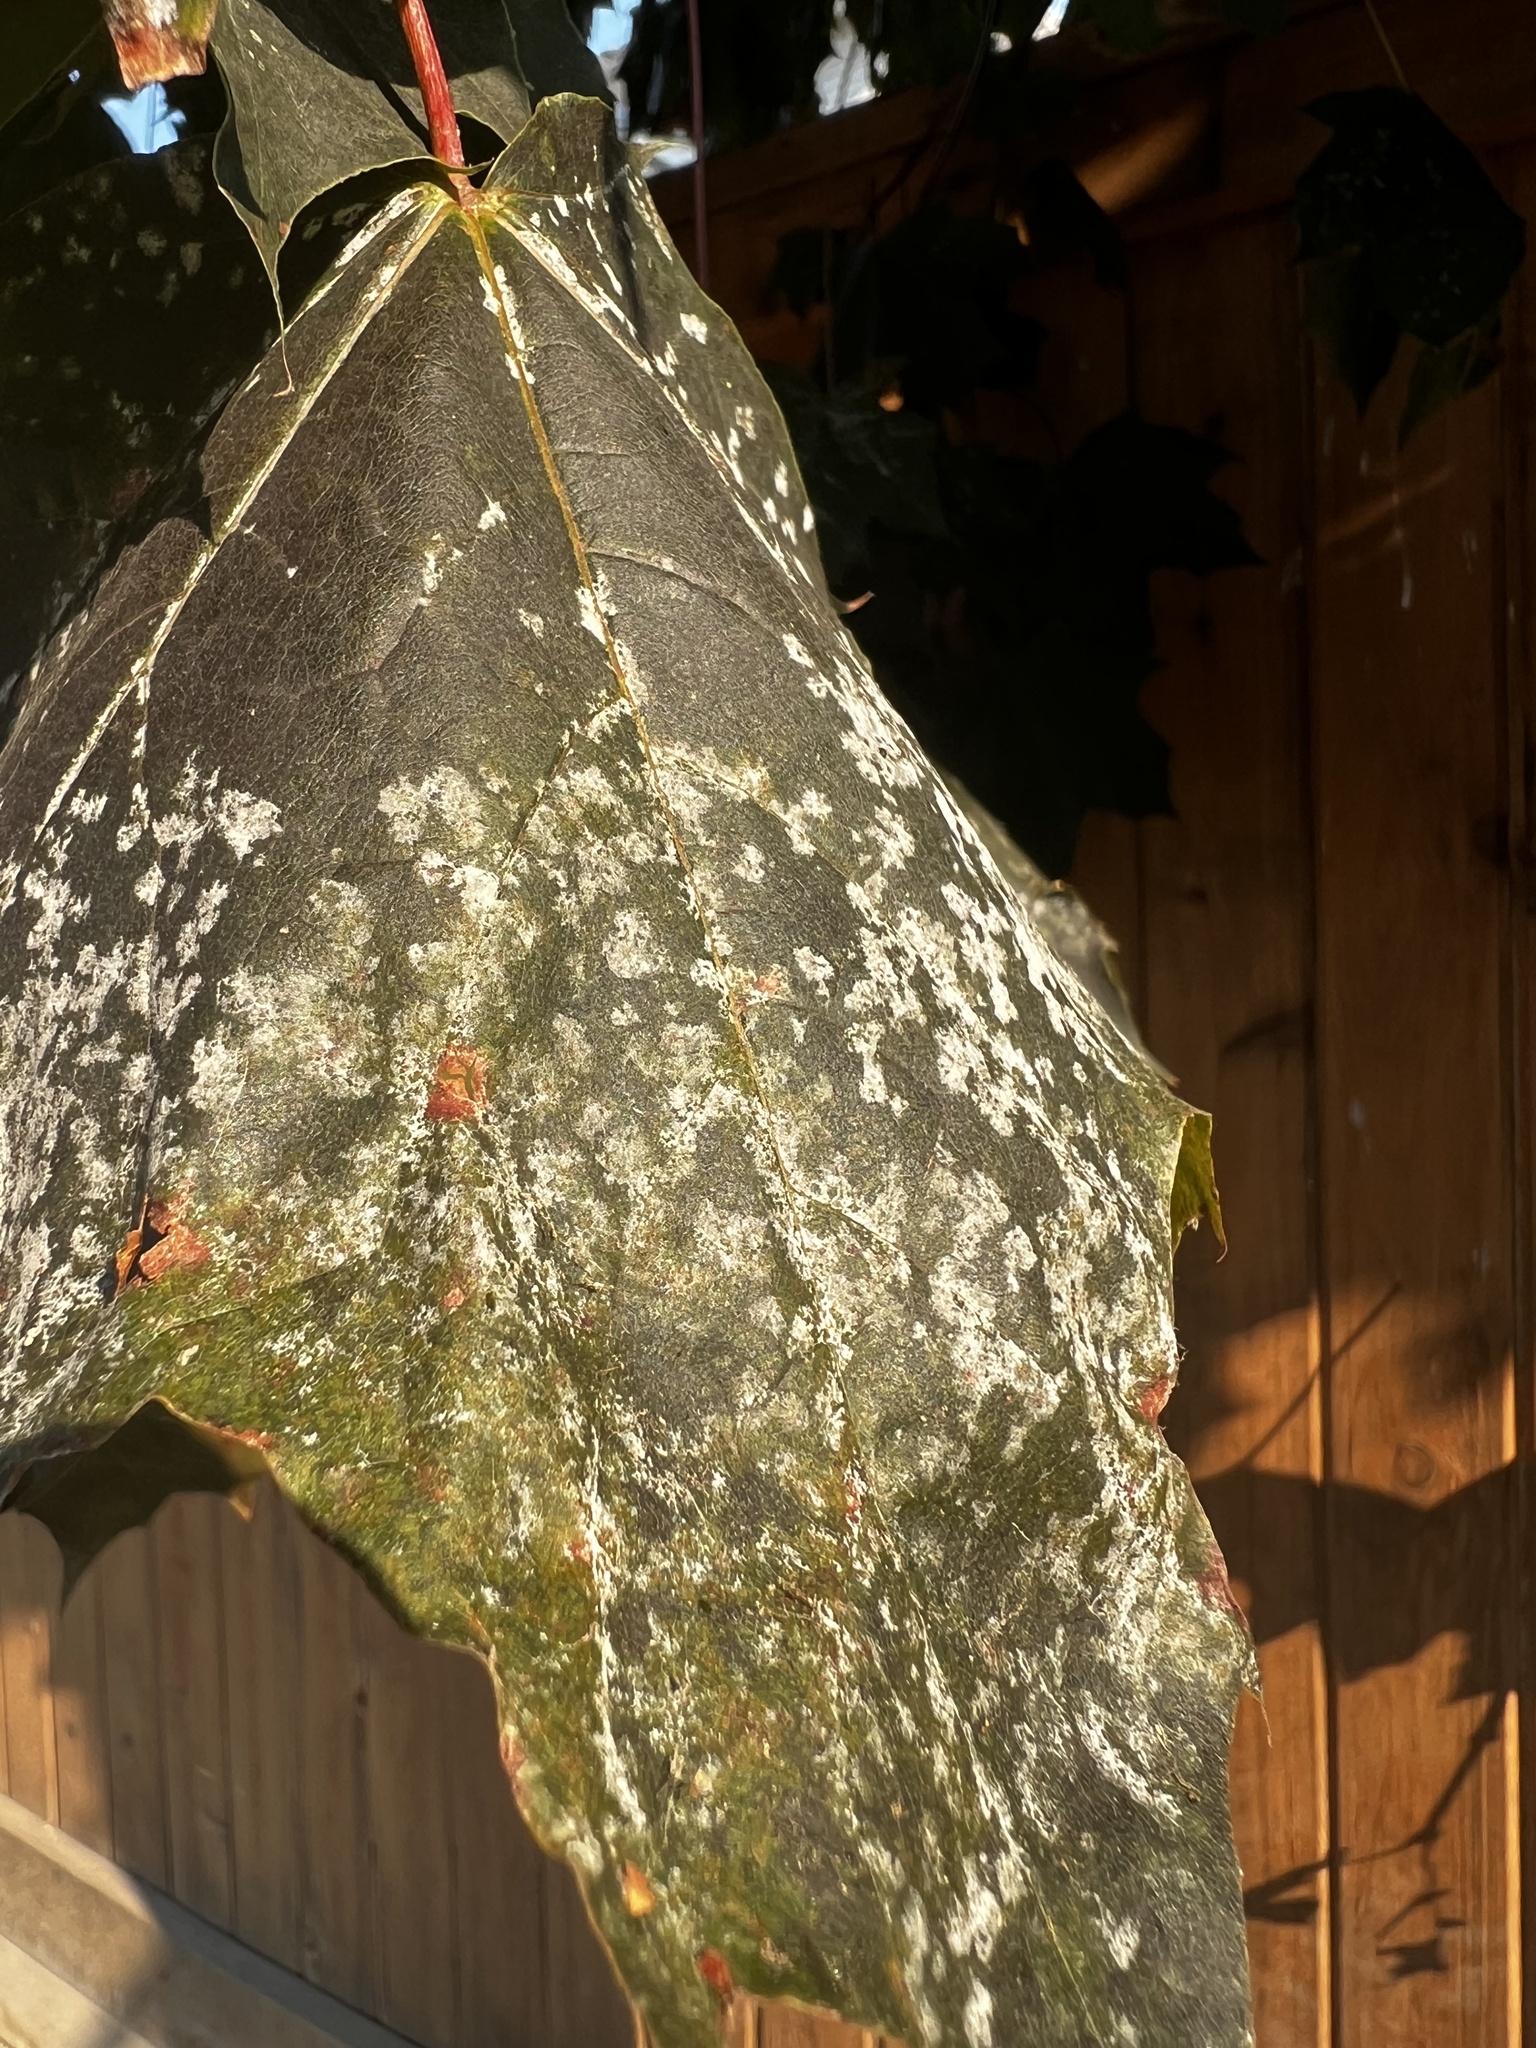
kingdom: Fungi
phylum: Ascomycota
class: Leotiomycetes
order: Helotiales
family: Erysiphaceae
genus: Sawadaea
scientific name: Sawadaea tulasnei
